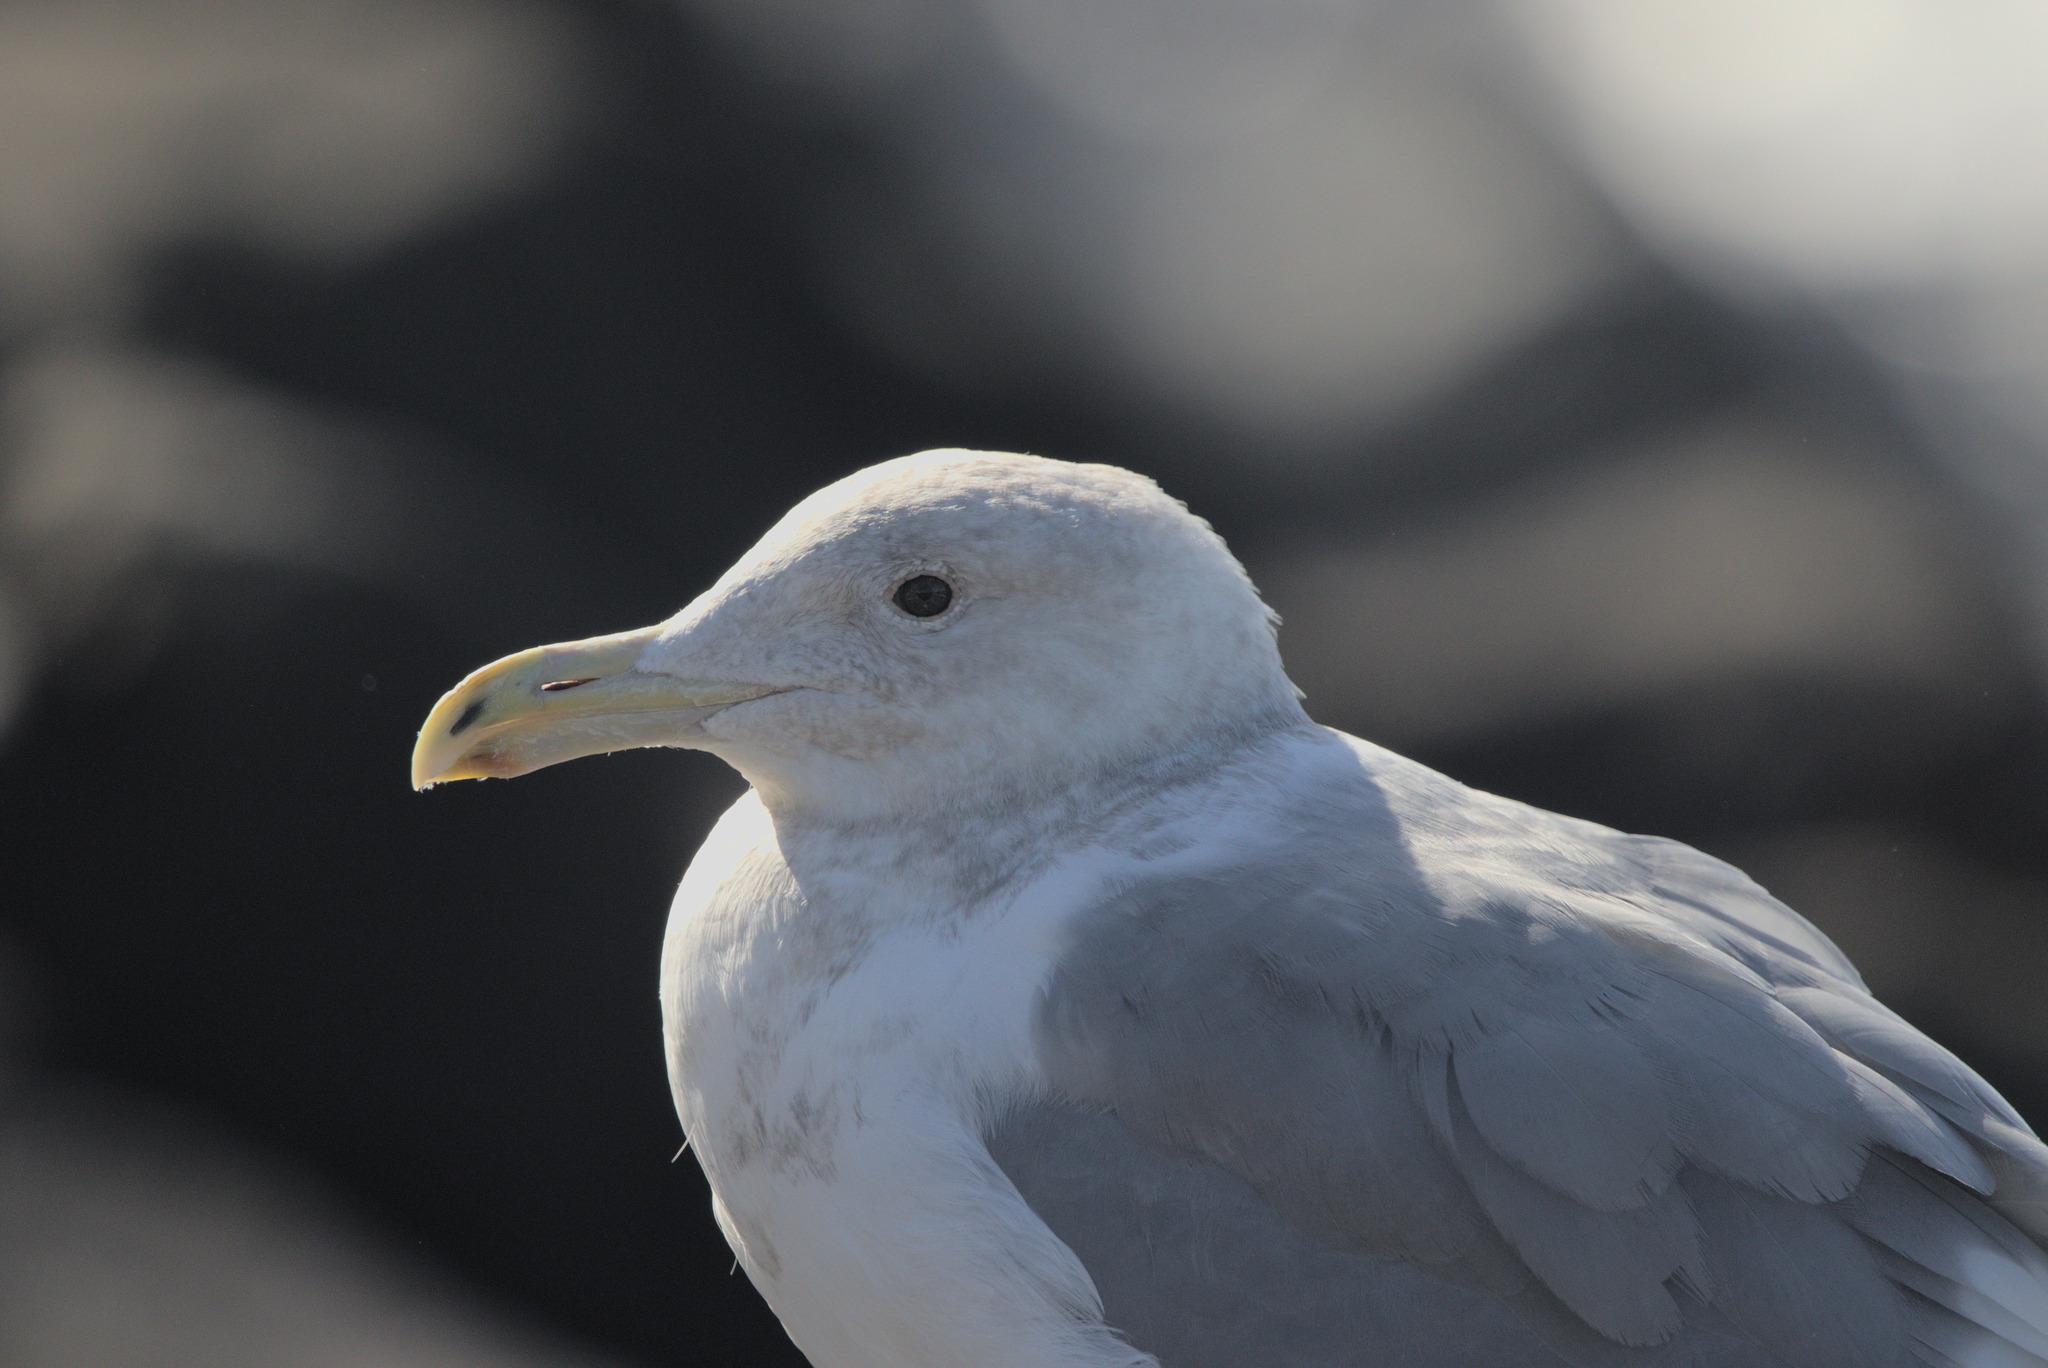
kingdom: Animalia
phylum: Chordata
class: Aves
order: Charadriiformes
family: Laridae
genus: Larus
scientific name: Larus
